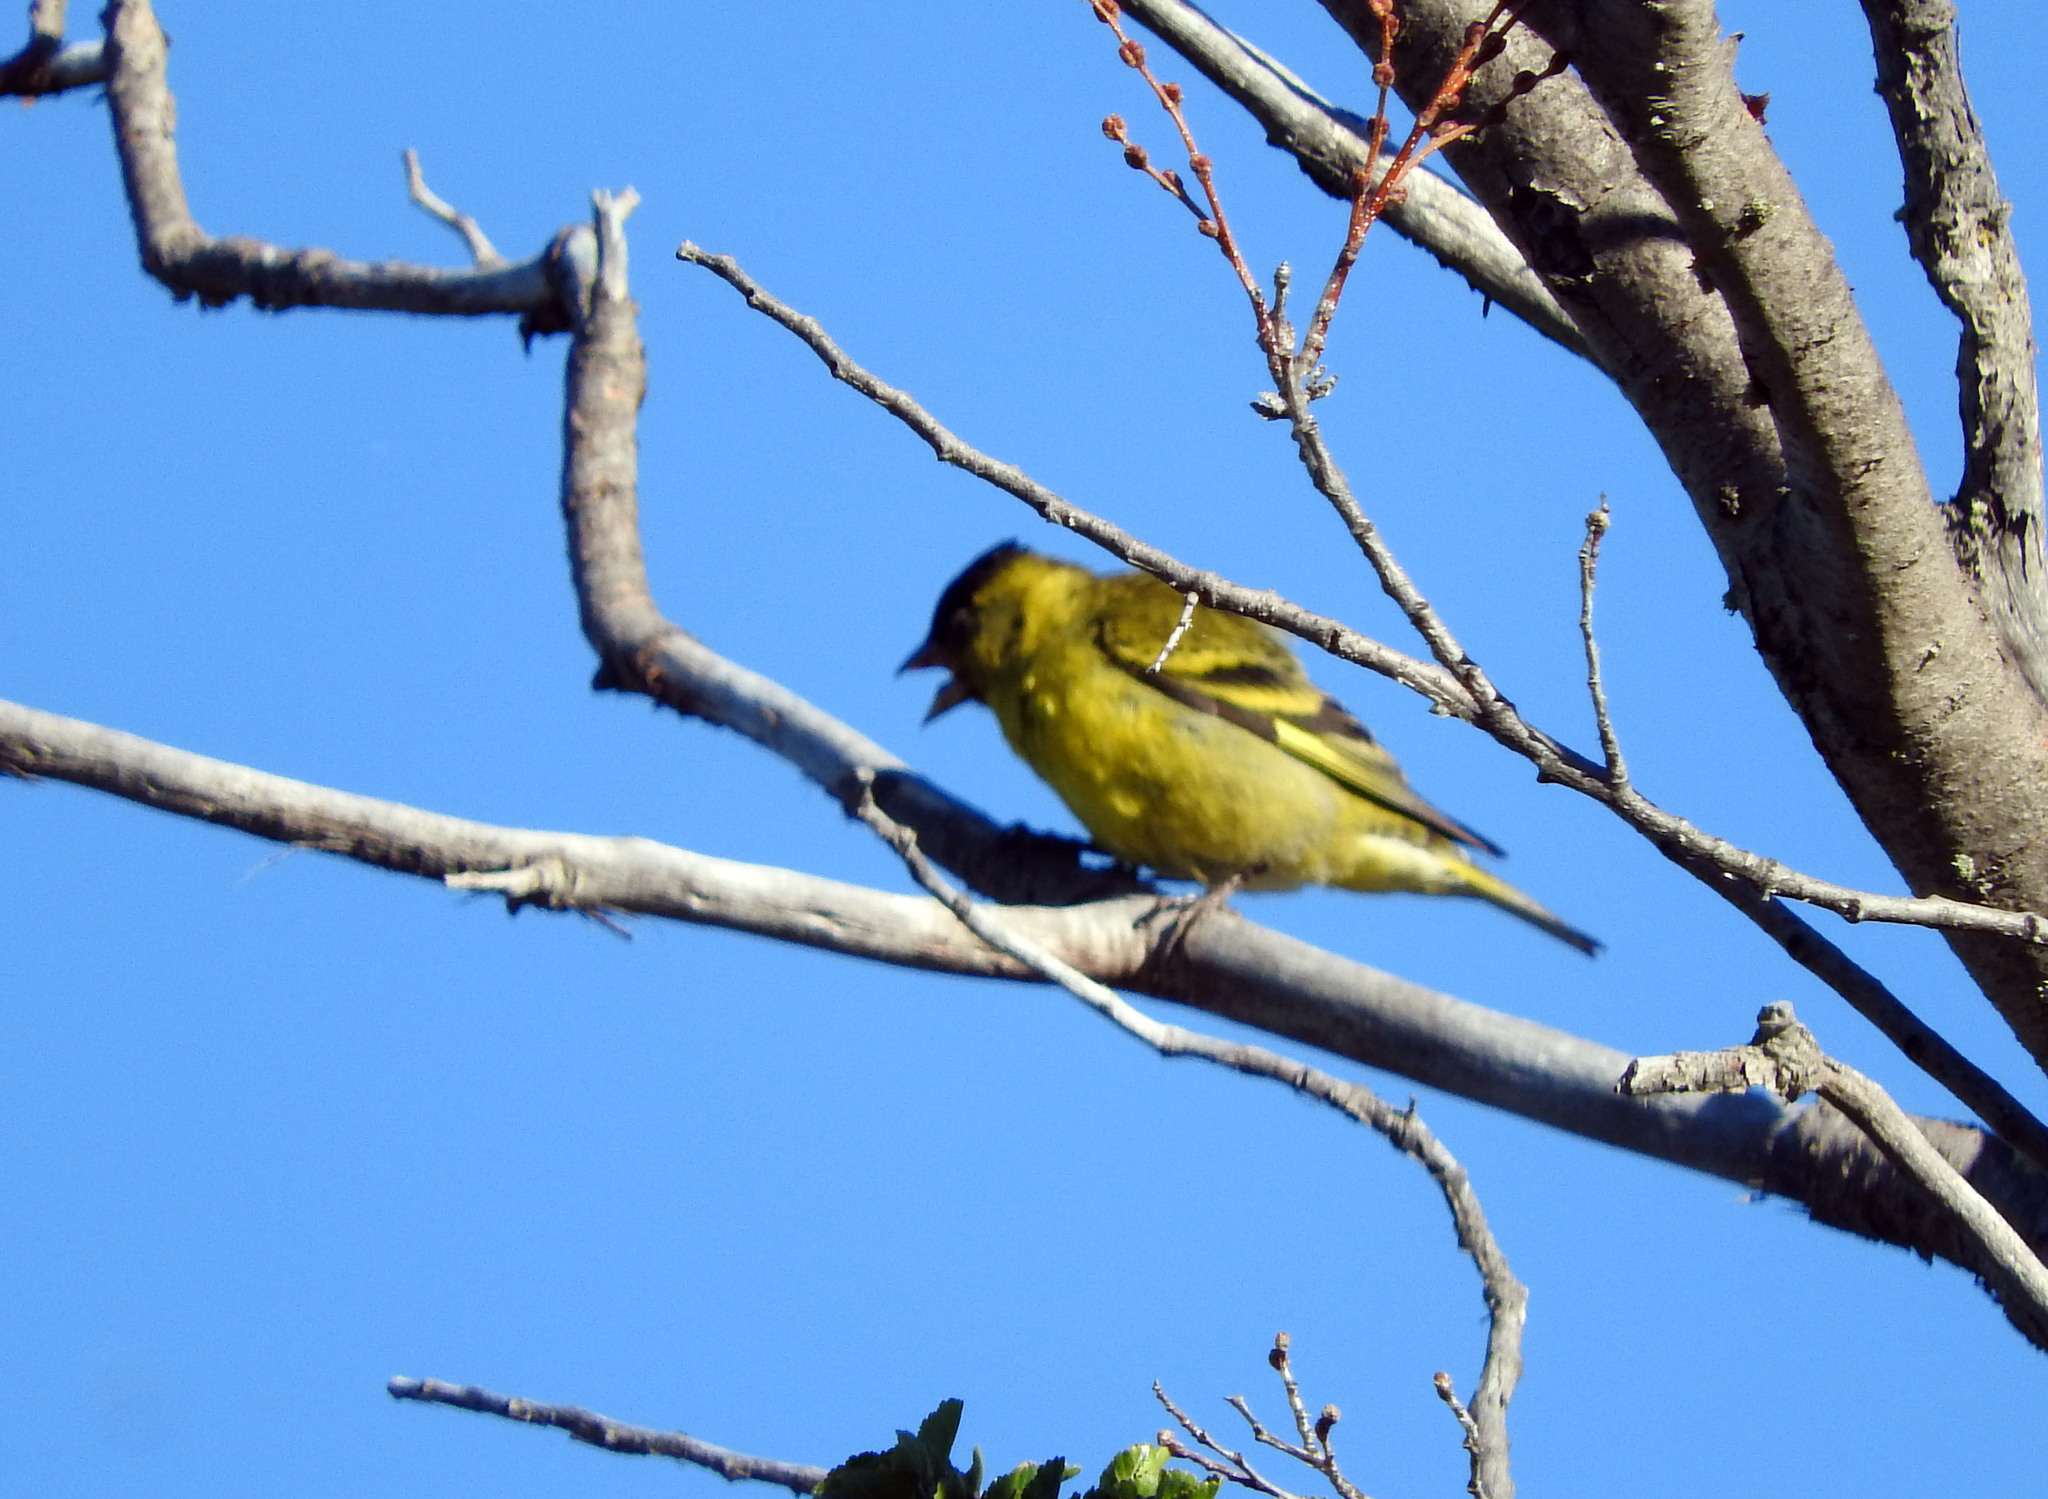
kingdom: Animalia
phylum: Chordata
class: Aves
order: Passeriformes
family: Fringillidae
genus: Spinus
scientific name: Spinus barbatus
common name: Black-chinned siskin
